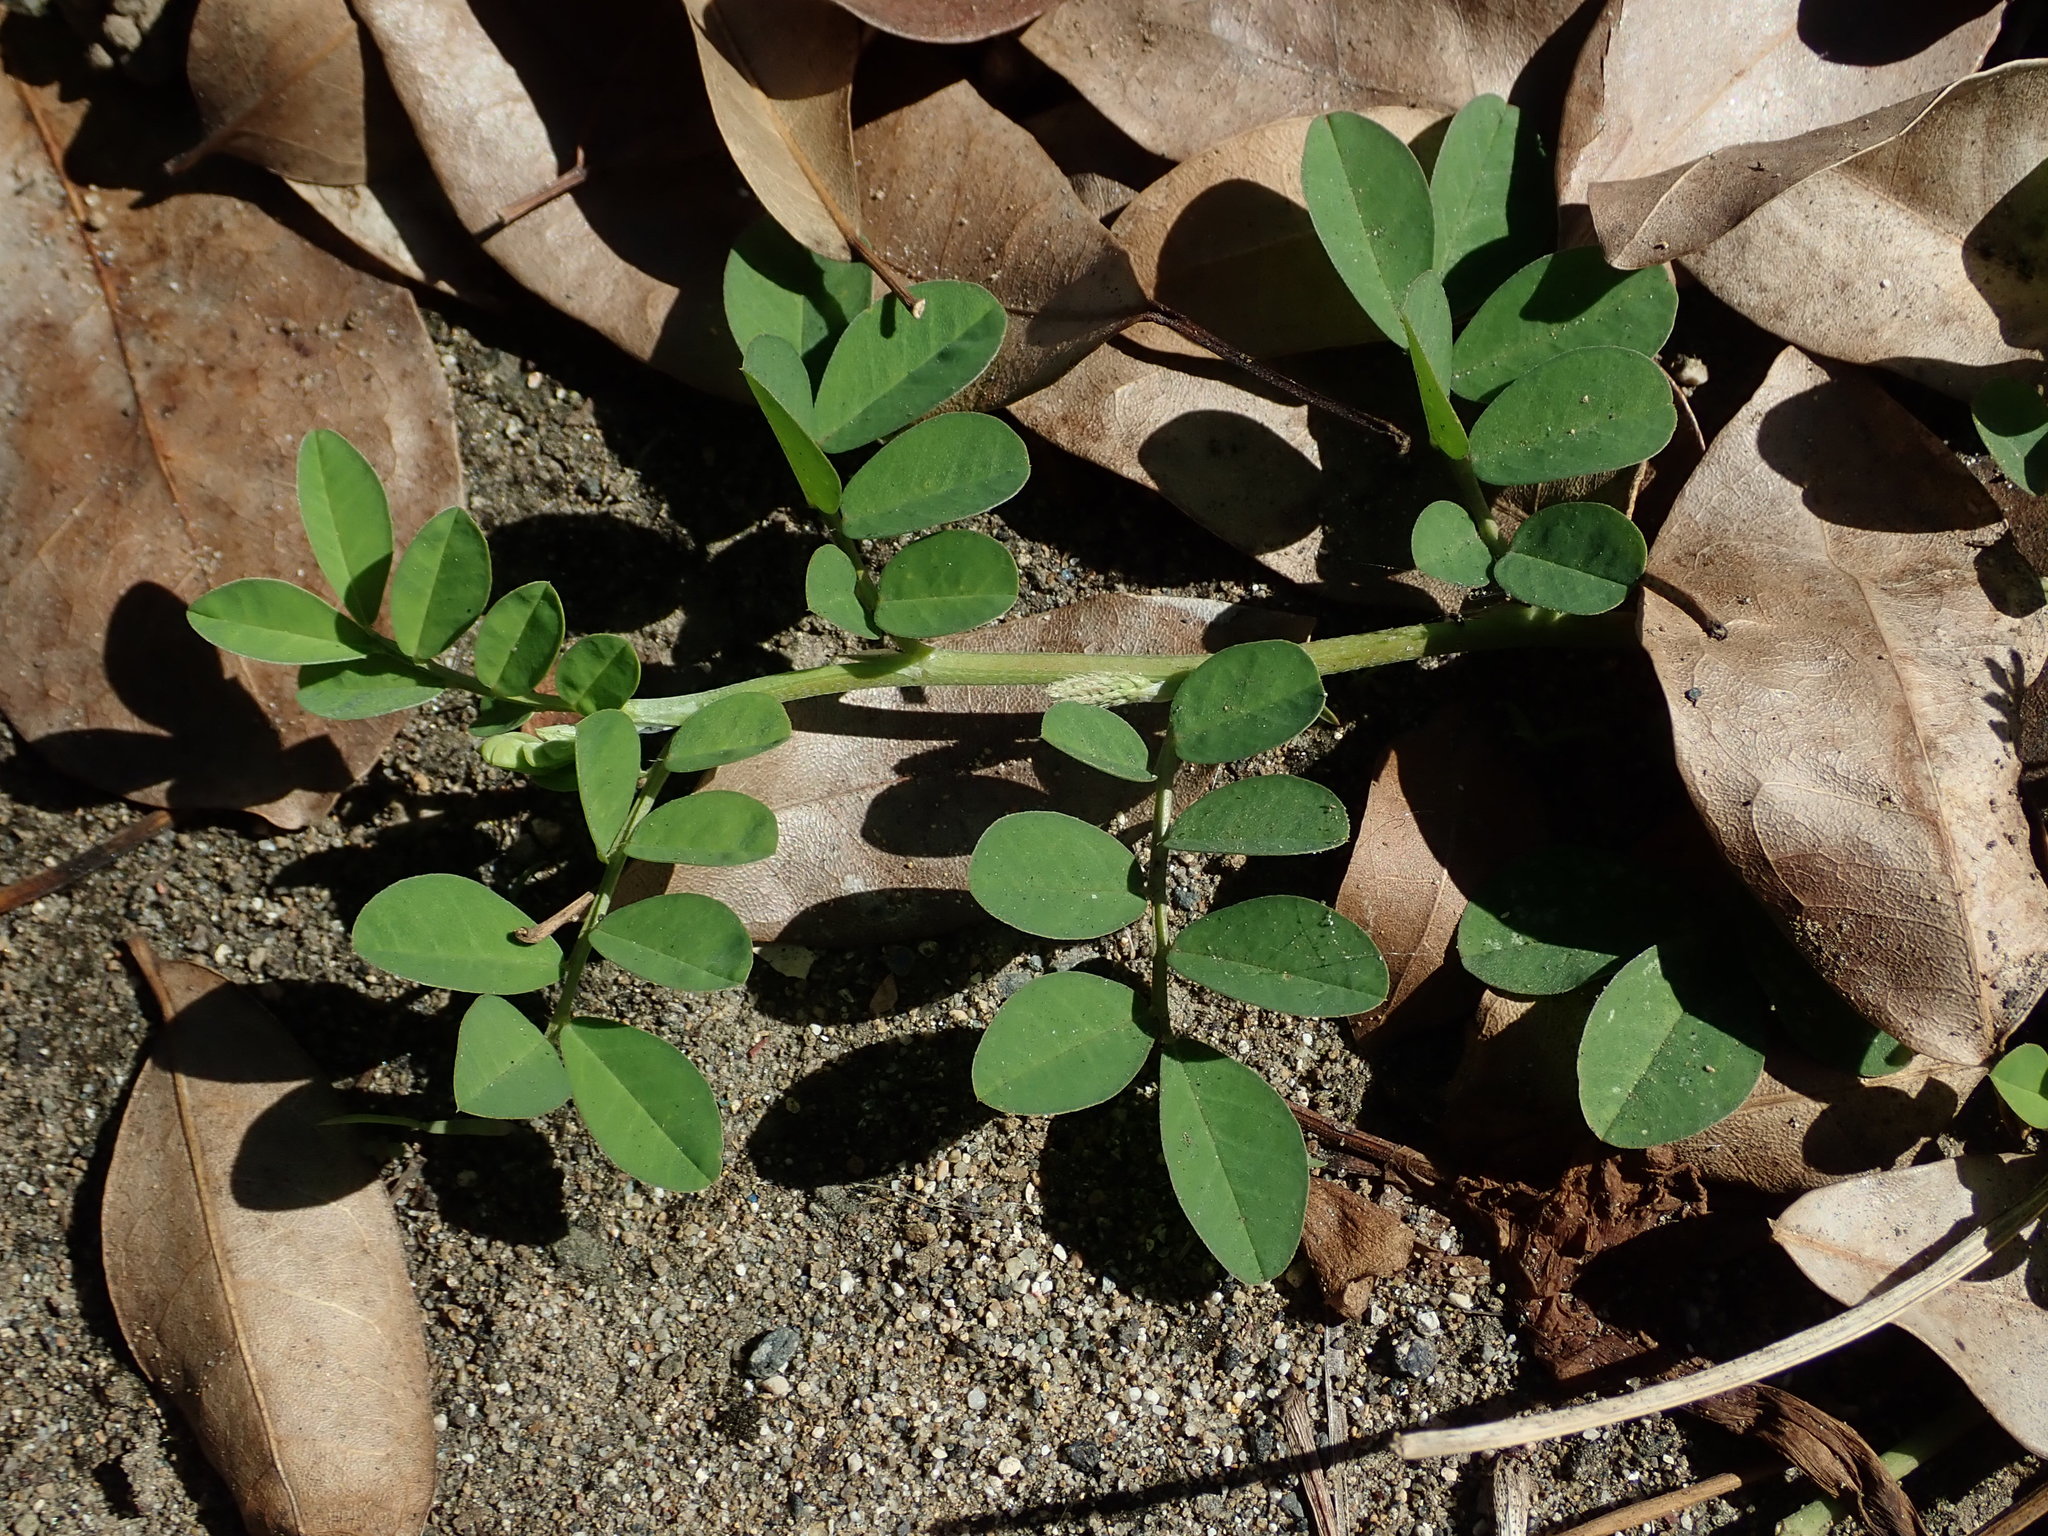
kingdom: Plantae
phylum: Tracheophyta
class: Magnoliopsida
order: Fabales
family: Fabaceae
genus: Indigofera
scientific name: Indigofera spicata
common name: Creeping indigo
